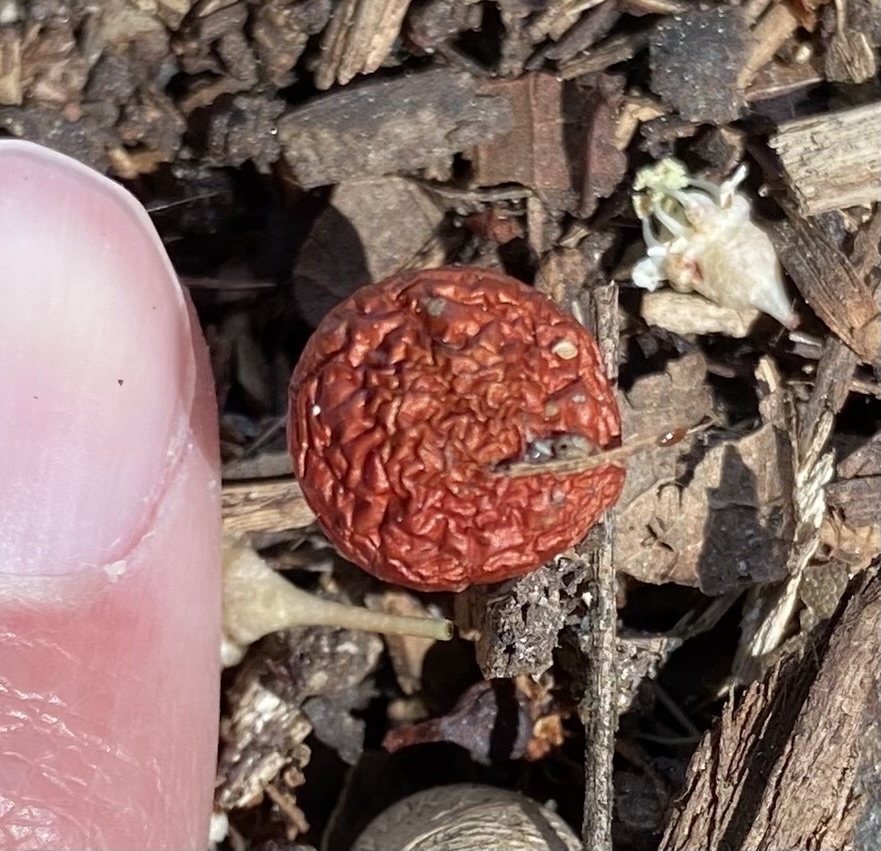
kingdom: Fungi
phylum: Basidiomycota
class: Agaricomycetes
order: Agaricales
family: Strophariaceae
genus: Leratiomyces
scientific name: Leratiomyces ceres
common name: Redlead roundhead
